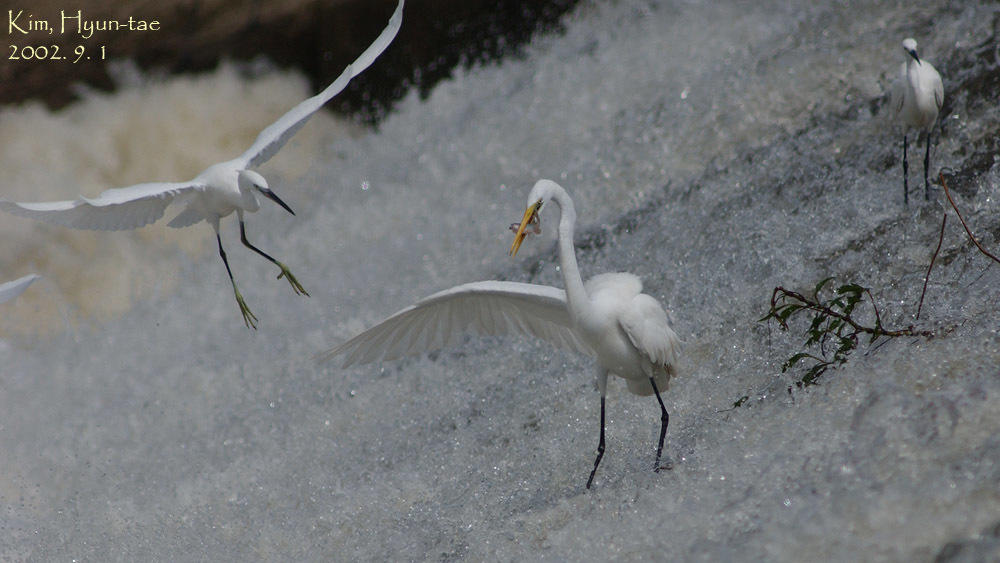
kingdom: Animalia
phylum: Chordata
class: Aves
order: Pelecaniformes
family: Ardeidae
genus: Ardea
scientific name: Ardea alba
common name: Great egret
